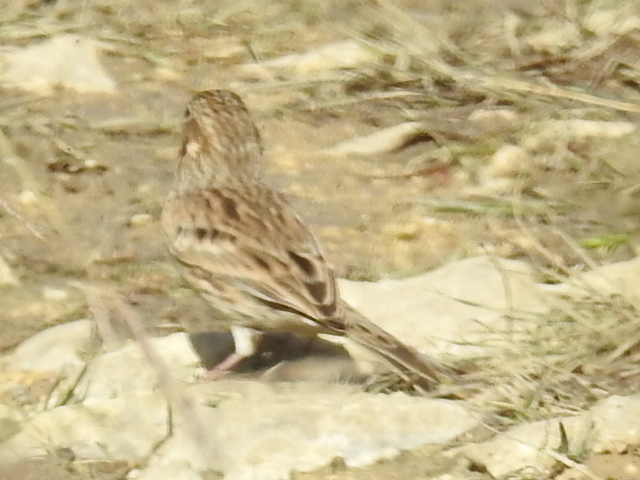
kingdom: Animalia
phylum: Chordata
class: Aves
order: Passeriformes
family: Passerellidae
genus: Pooecetes
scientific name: Pooecetes gramineus
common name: Vesper sparrow
